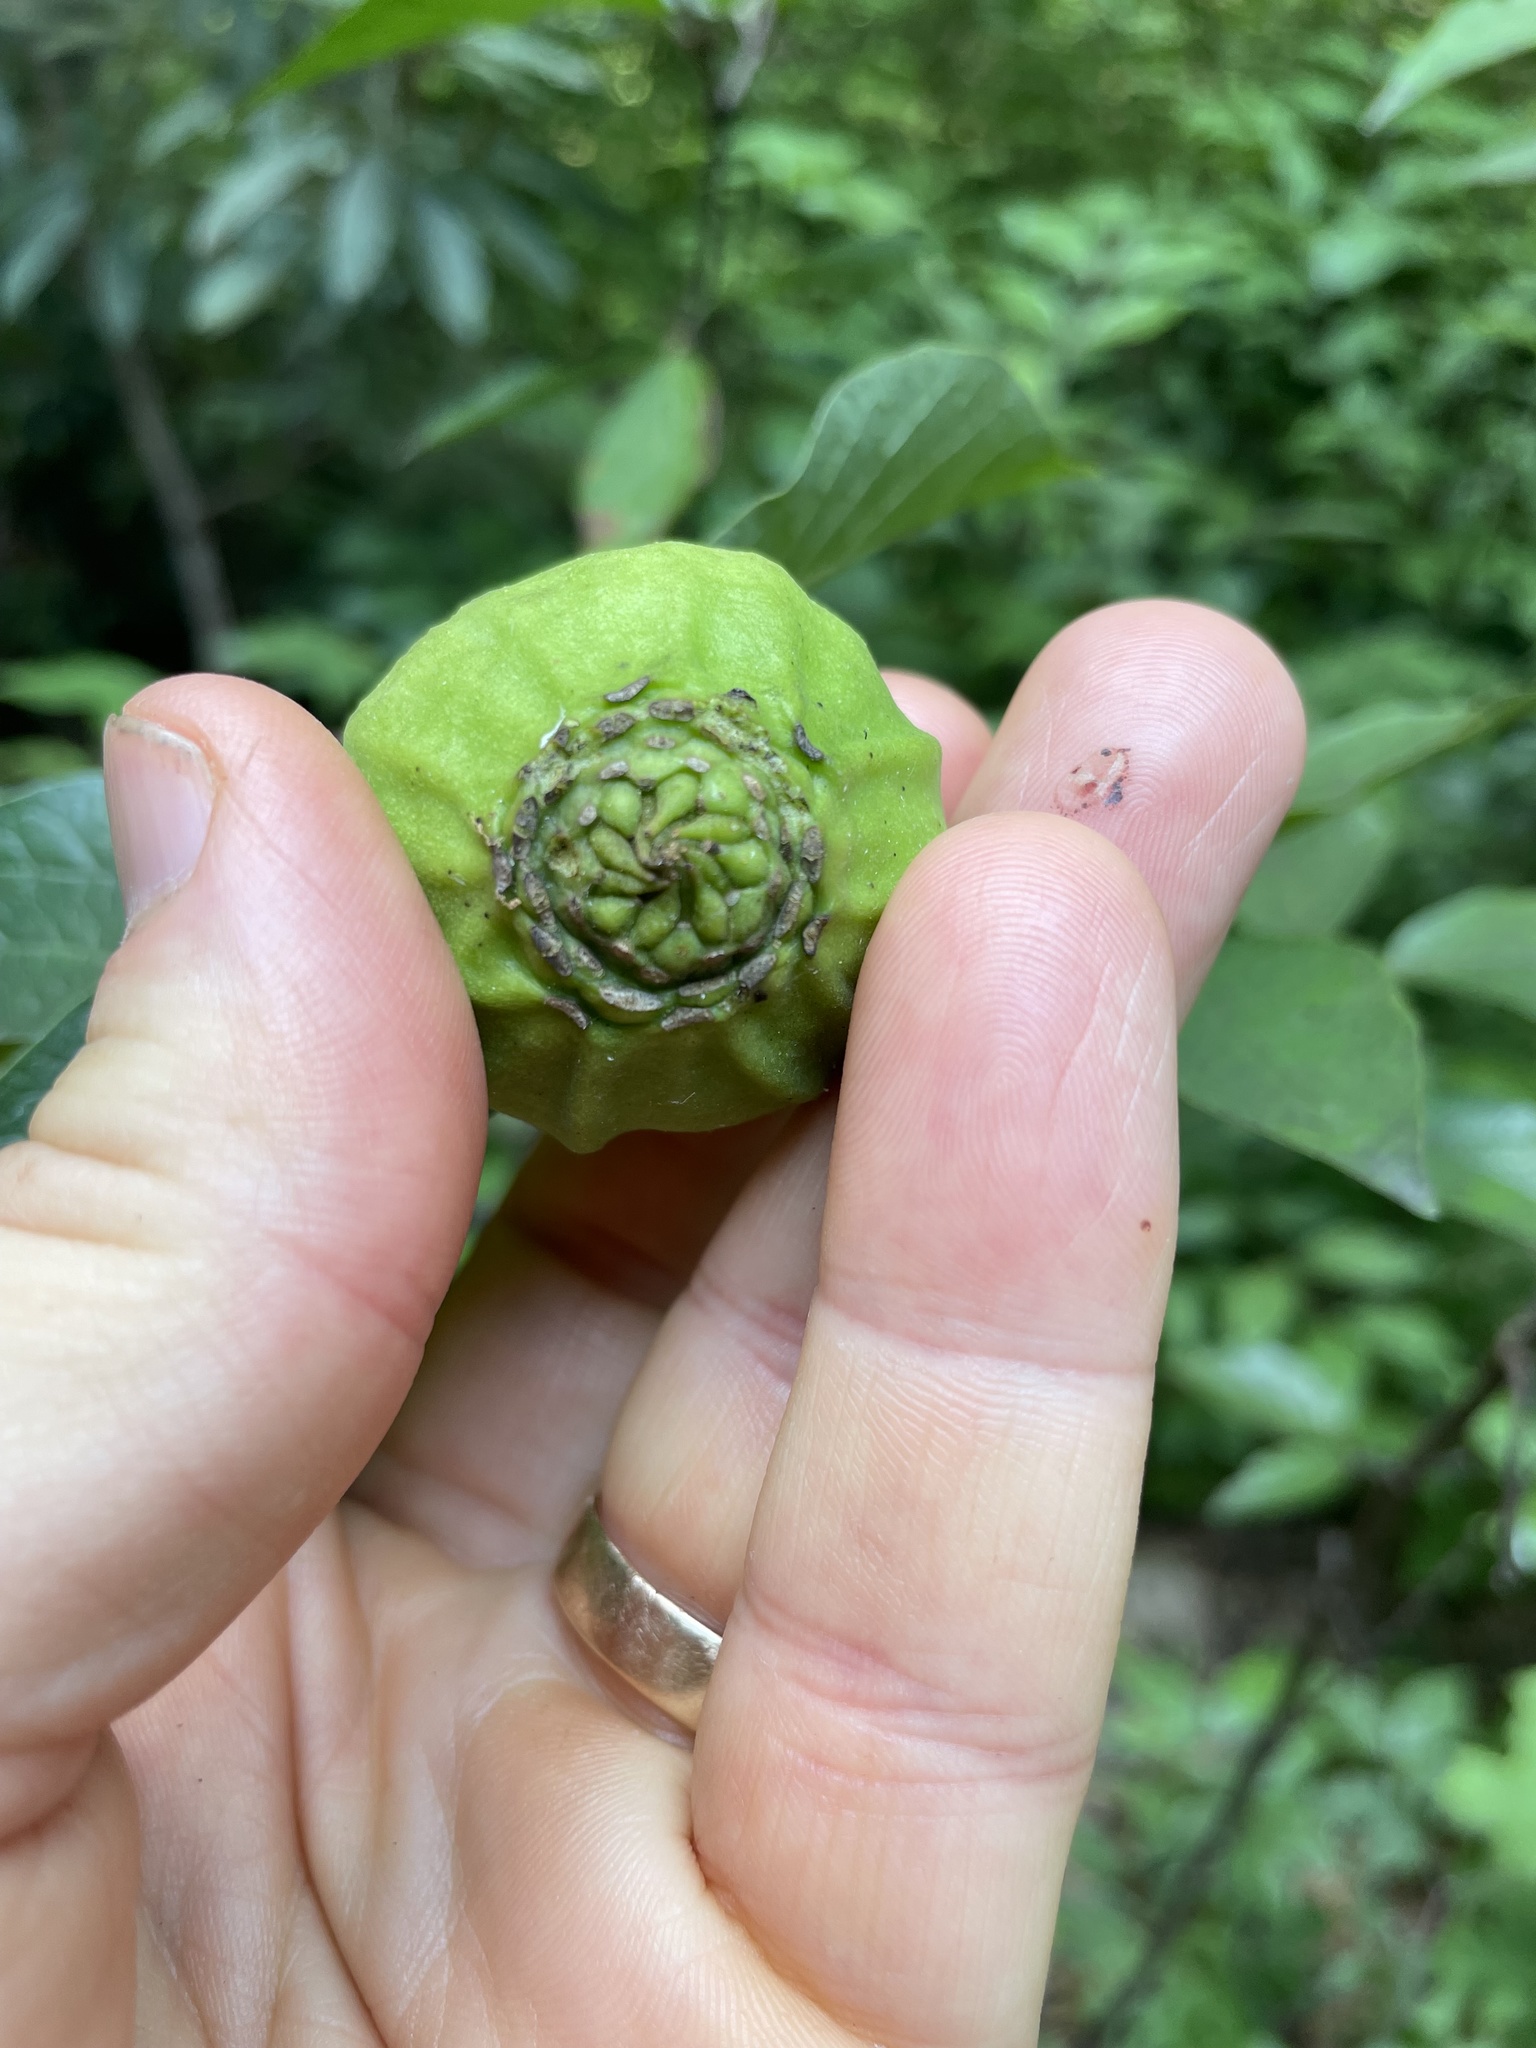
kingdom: Plantae
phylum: Tracheophyta
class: Magnoliopsida
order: Laurales
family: Calycanthaceae
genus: Calycanthus
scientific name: Calycanthus floridus
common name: Carolina-allspice
